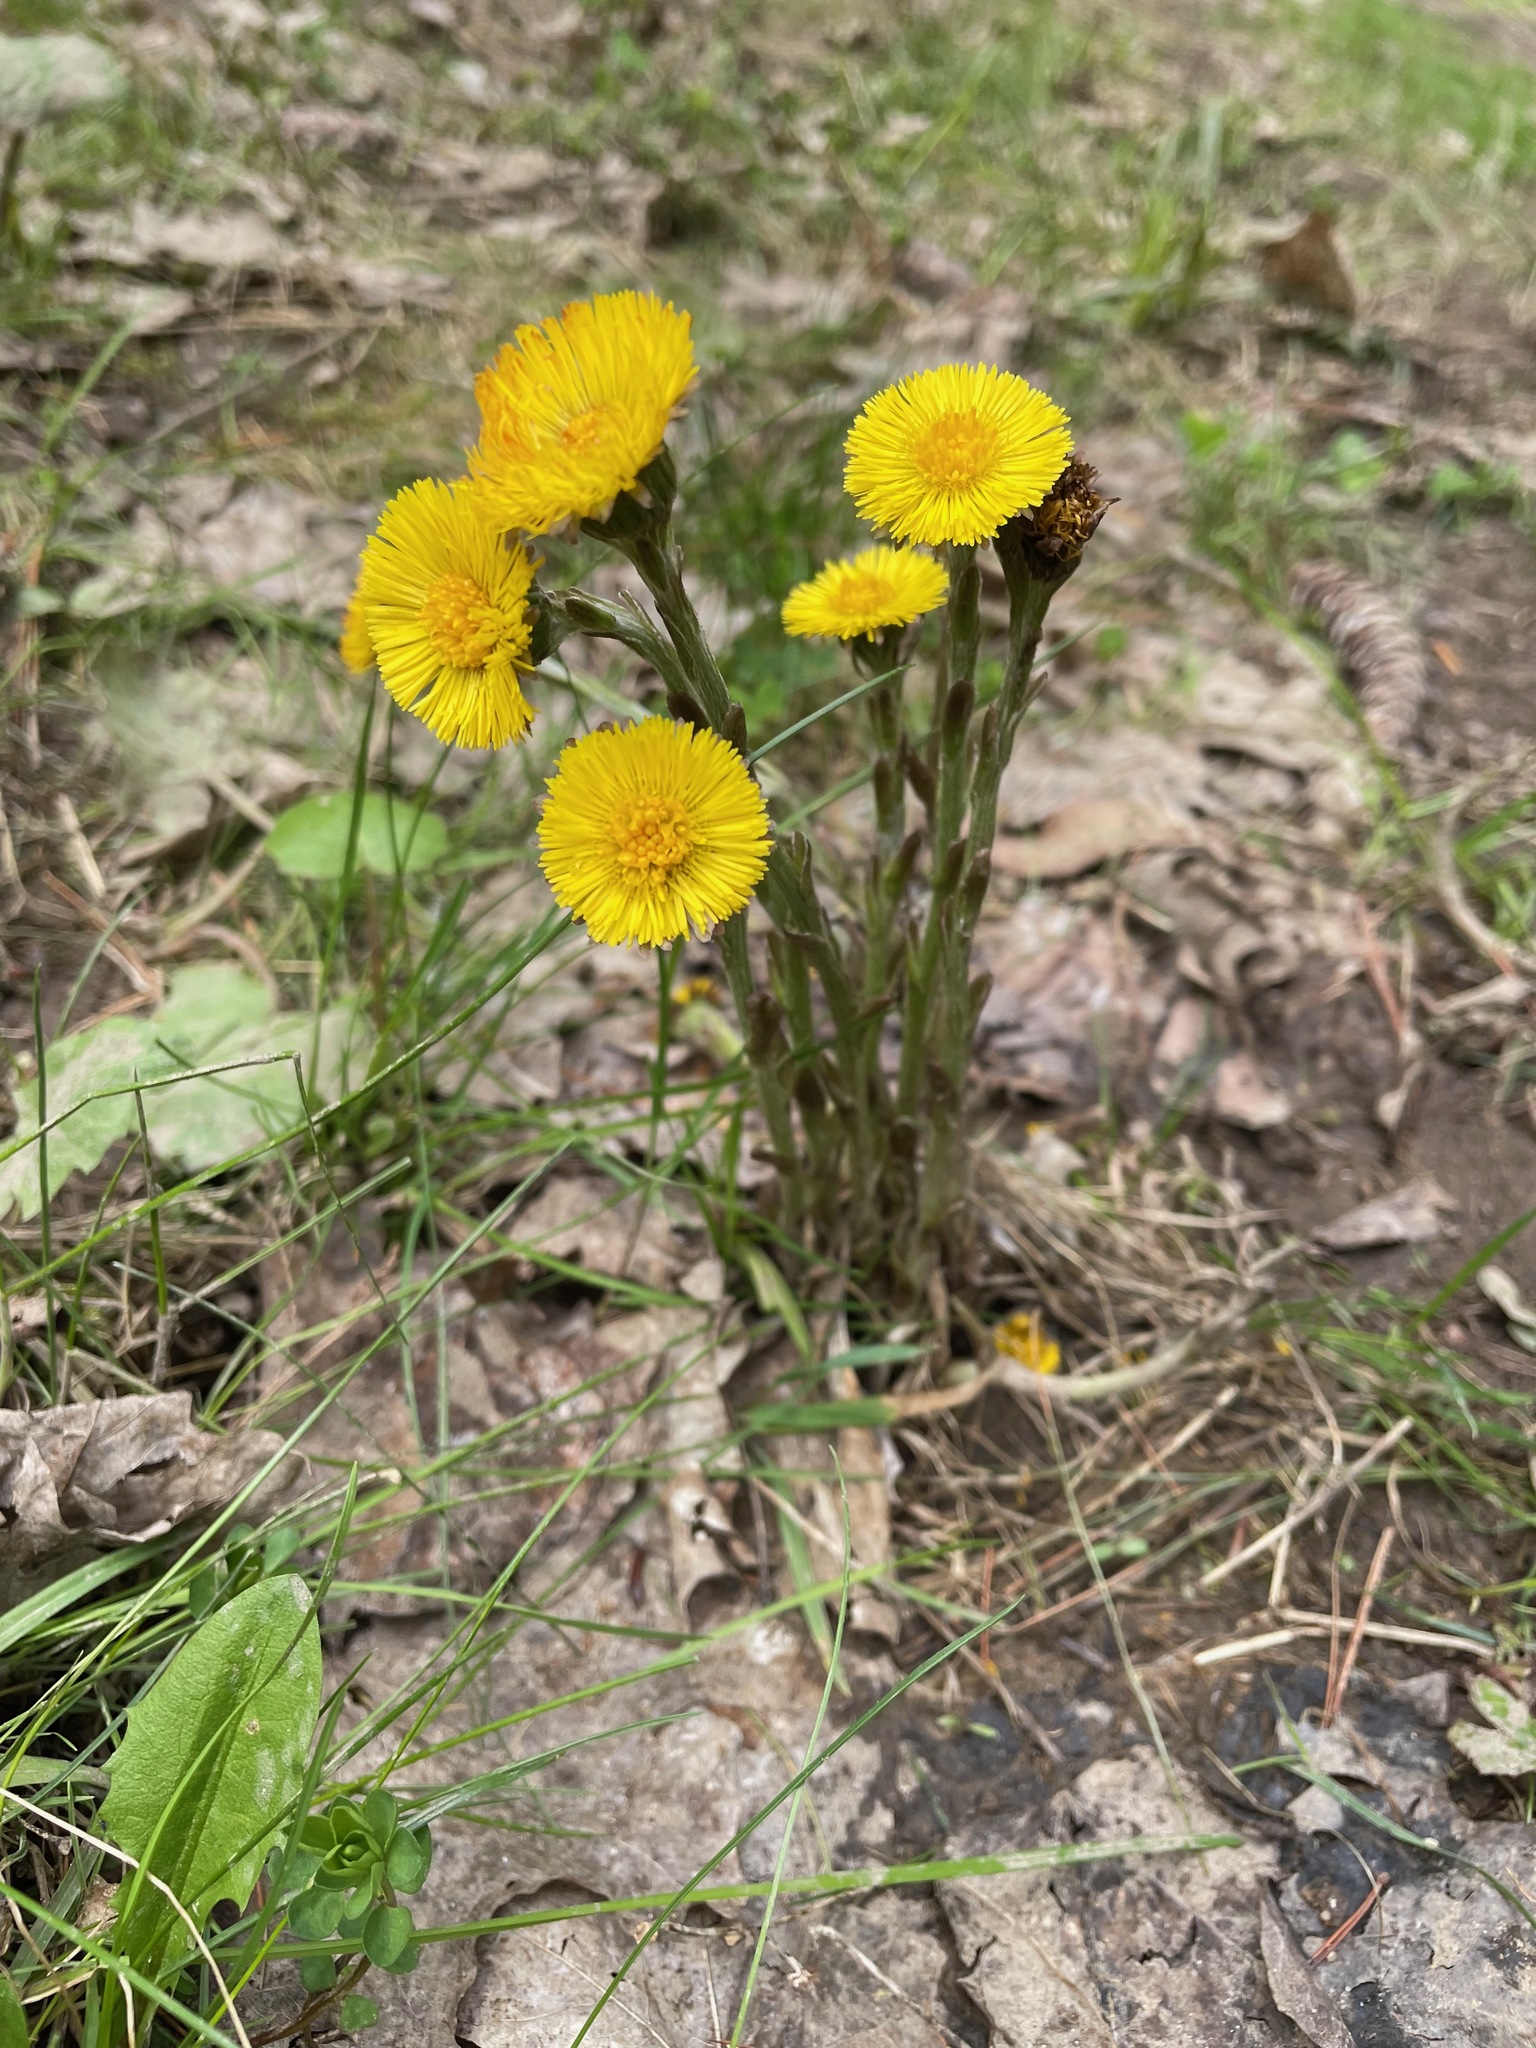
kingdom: Plantae
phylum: Tracheophyta
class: Magnoliopsida
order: Asterales
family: Asteraceae
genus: Tussilago
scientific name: Tussilago farfara
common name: Coltsfoot
